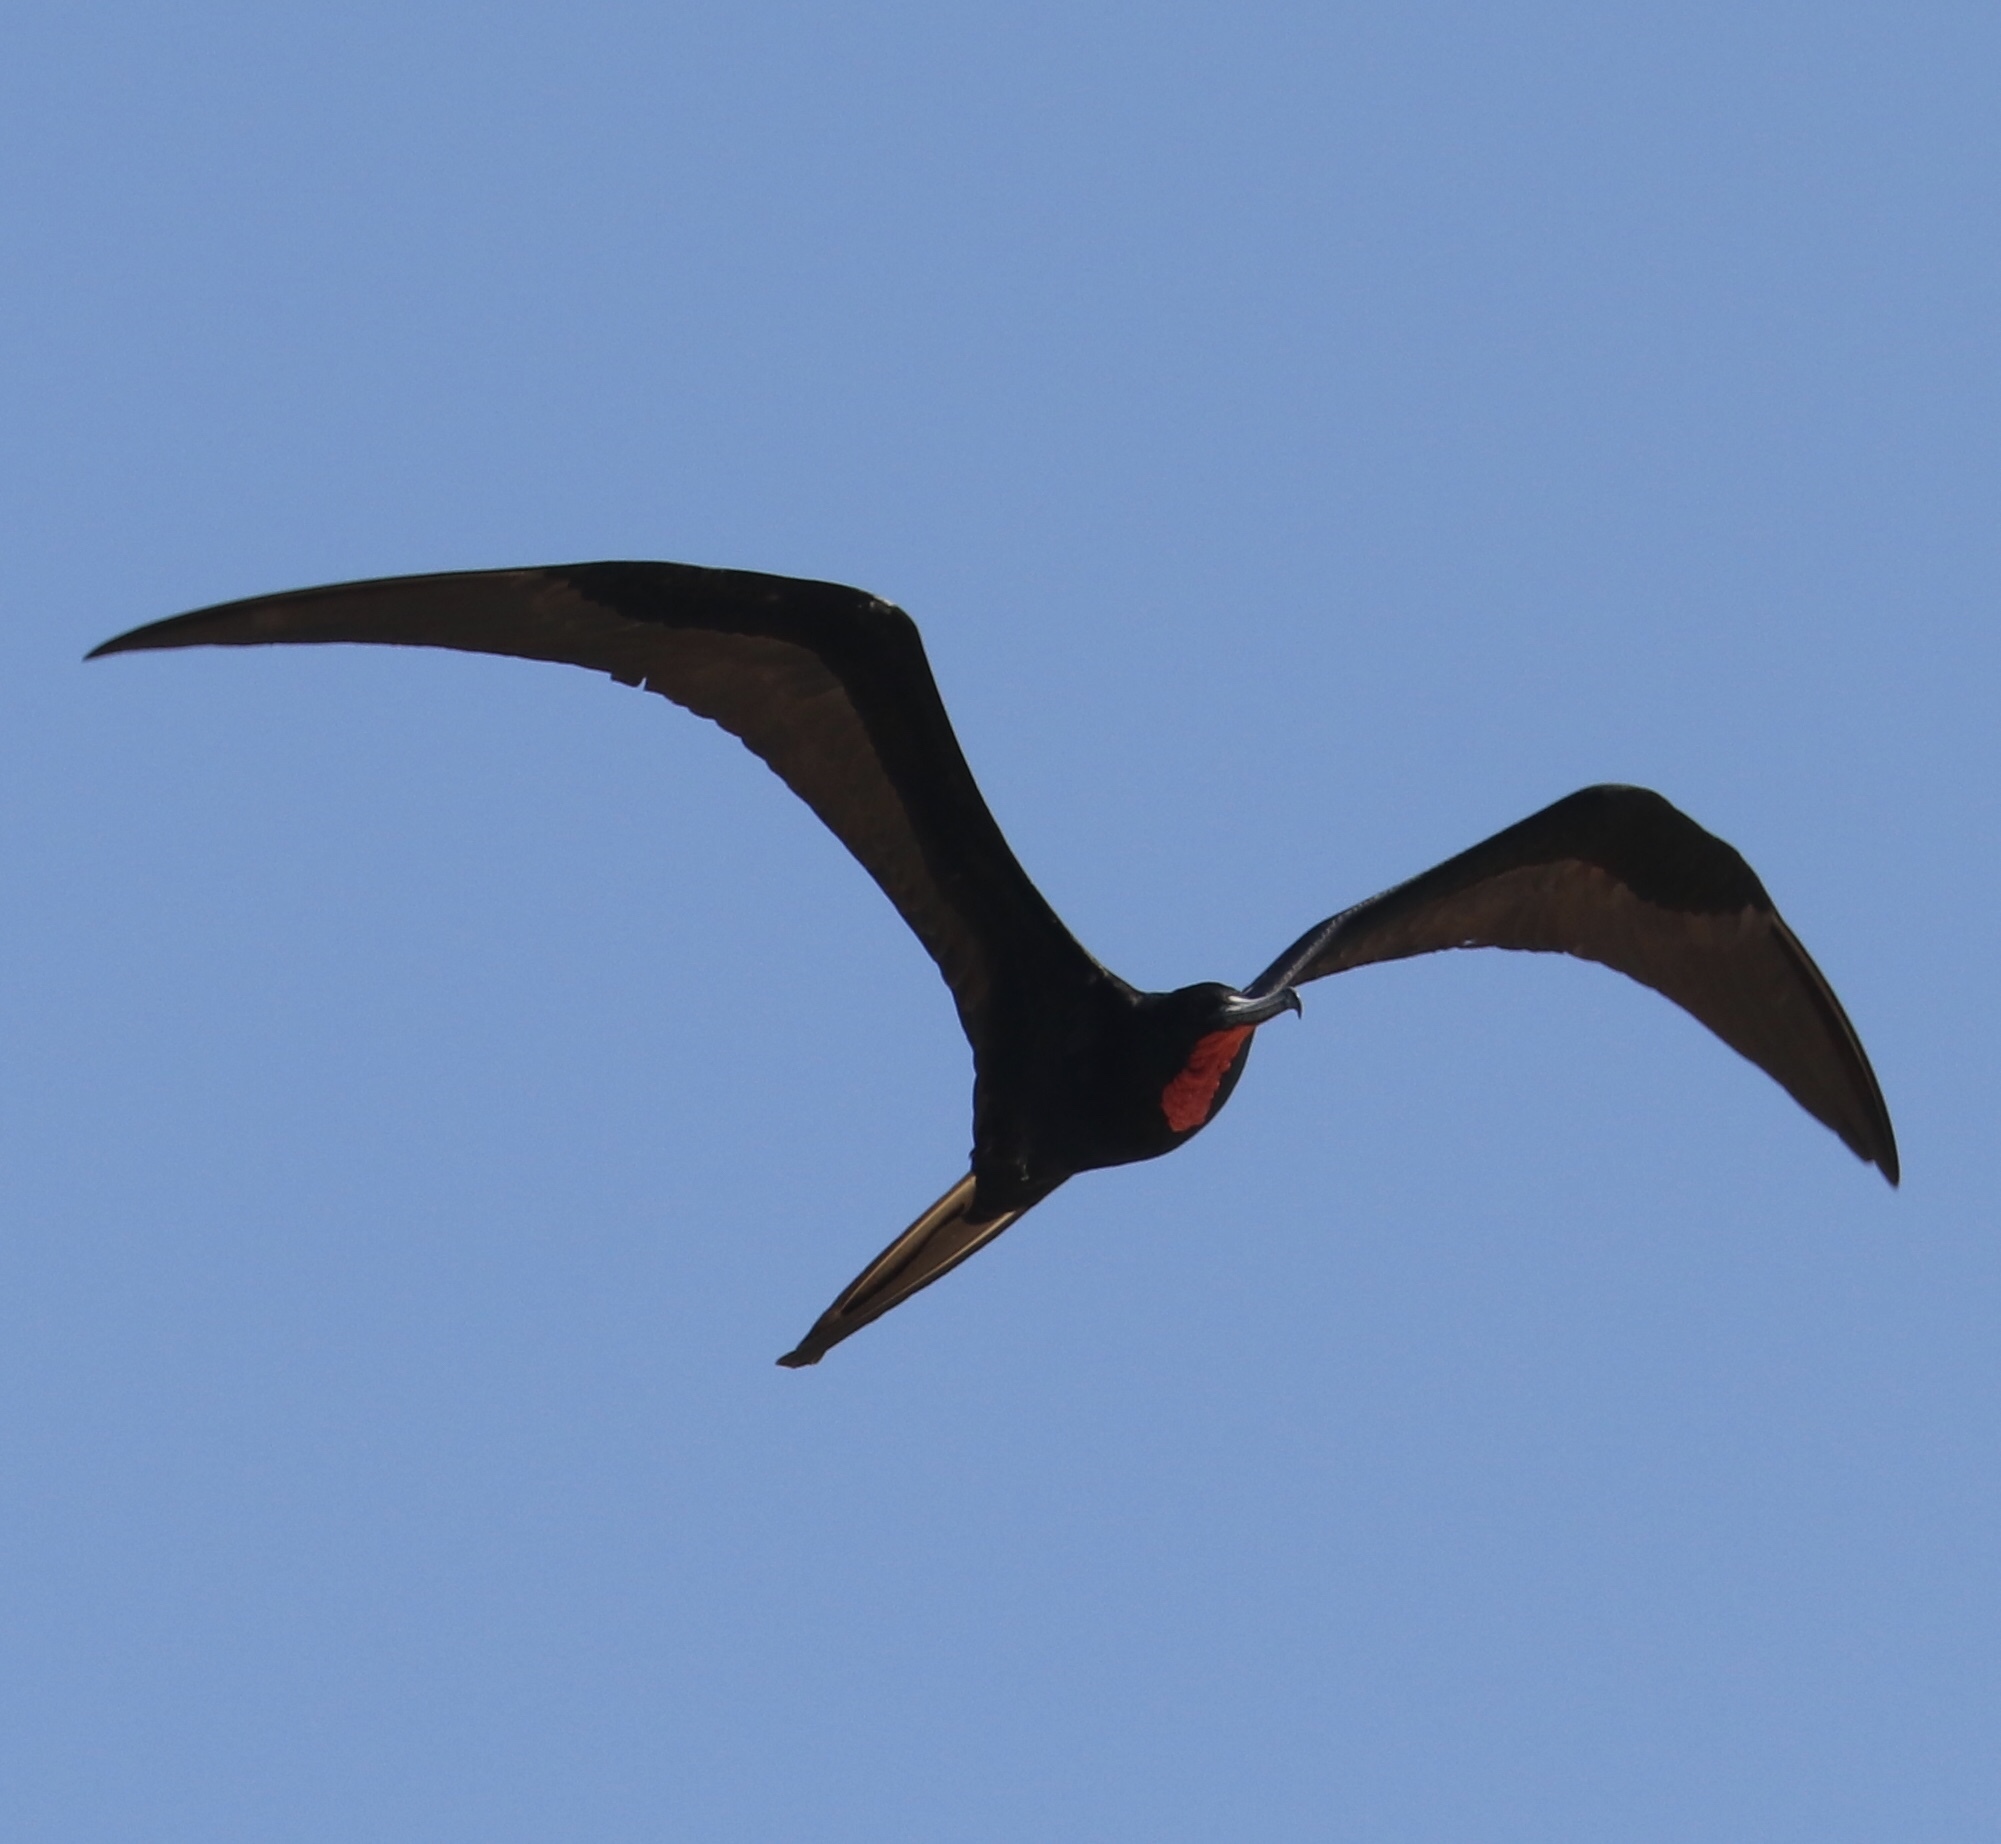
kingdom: Animalia
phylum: Chordata
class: Aves
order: Suliformes
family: Fregatidae
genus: Fregata
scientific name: Fregata magnificens
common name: Magnificent frigatebird
